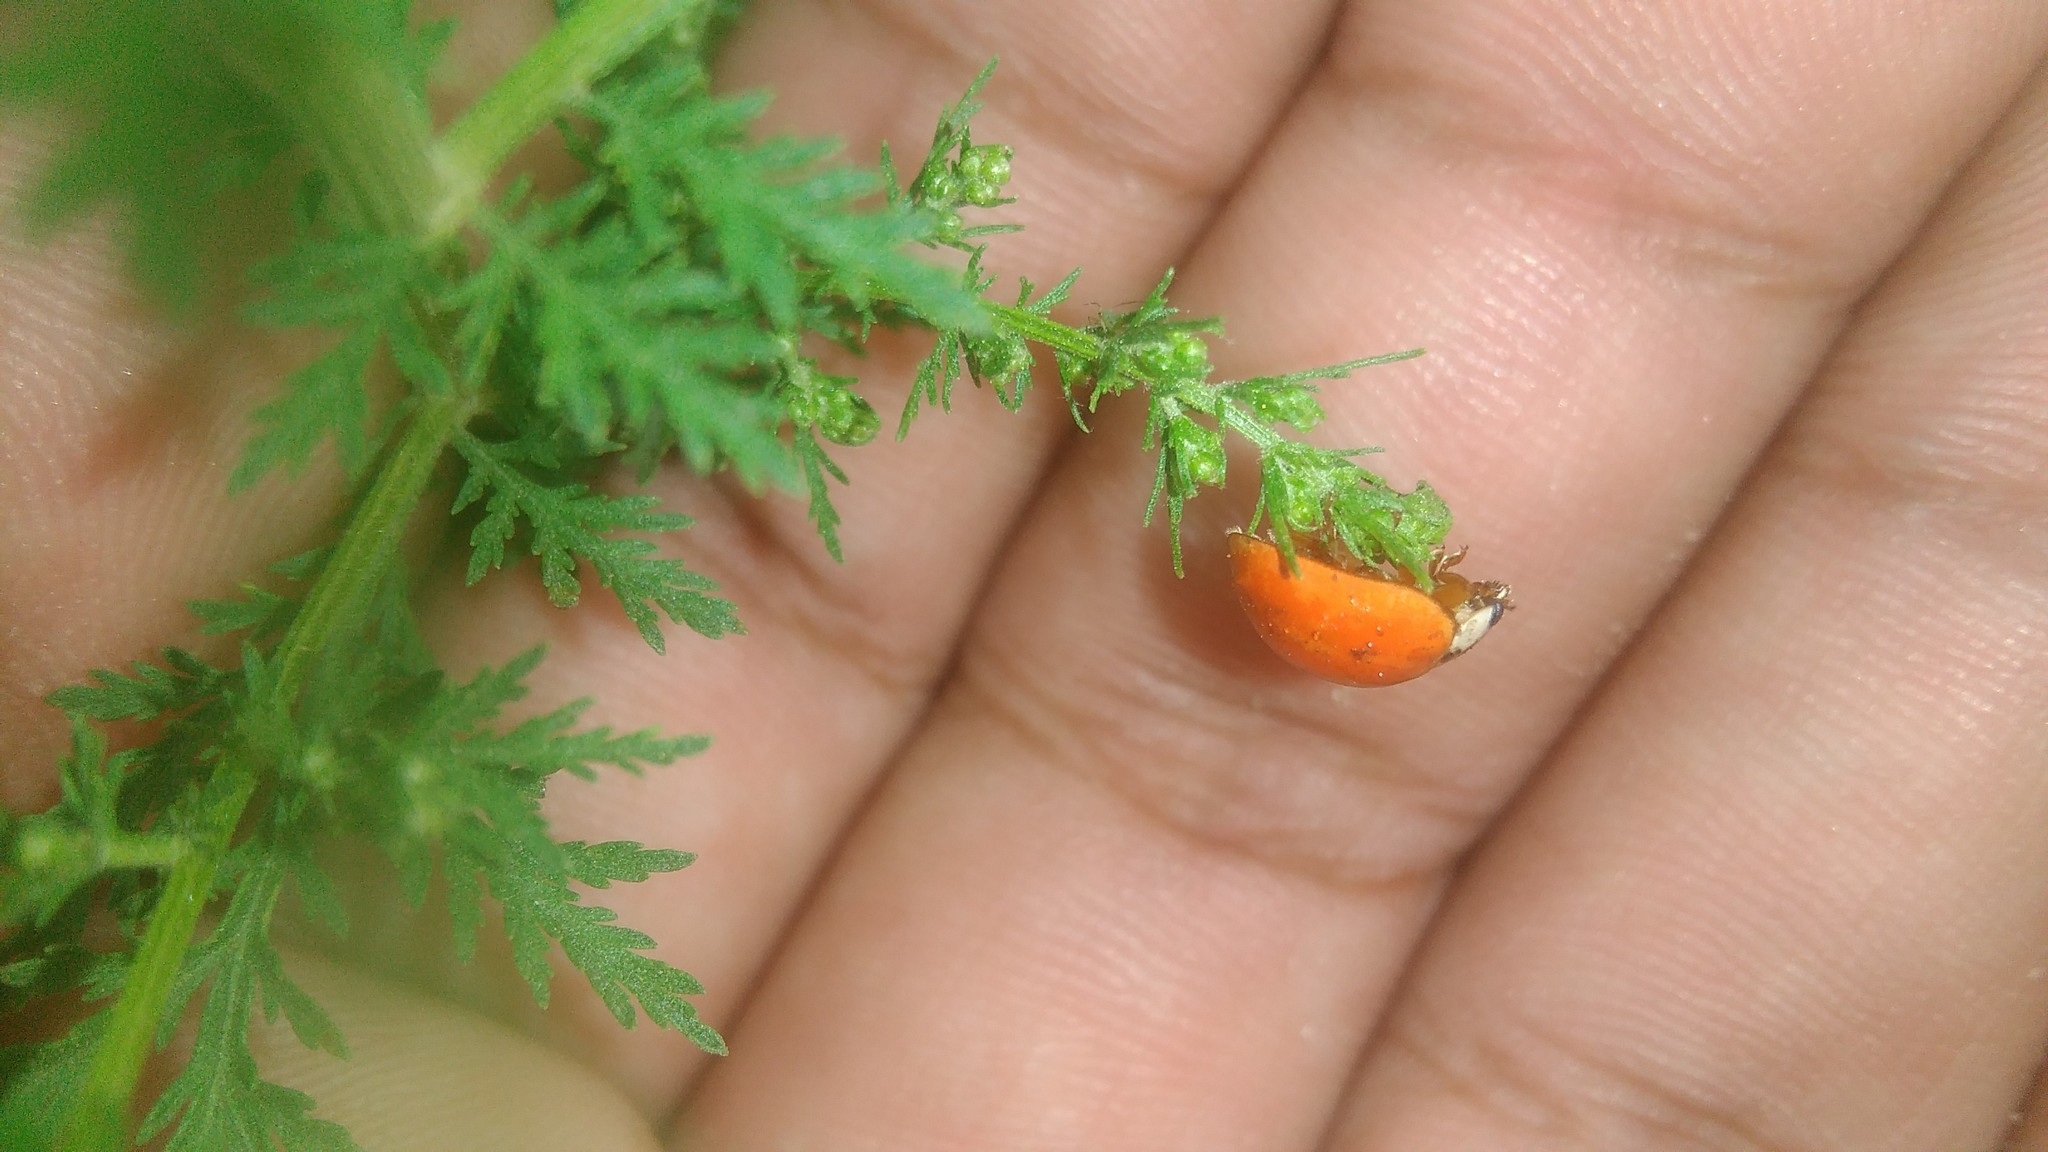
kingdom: Animalia
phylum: Arthropoda
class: Insecta
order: Coleoptera
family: Coccinellidae
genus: Harmonia
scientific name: Harmonia axyridis
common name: Harlequin ladybird
